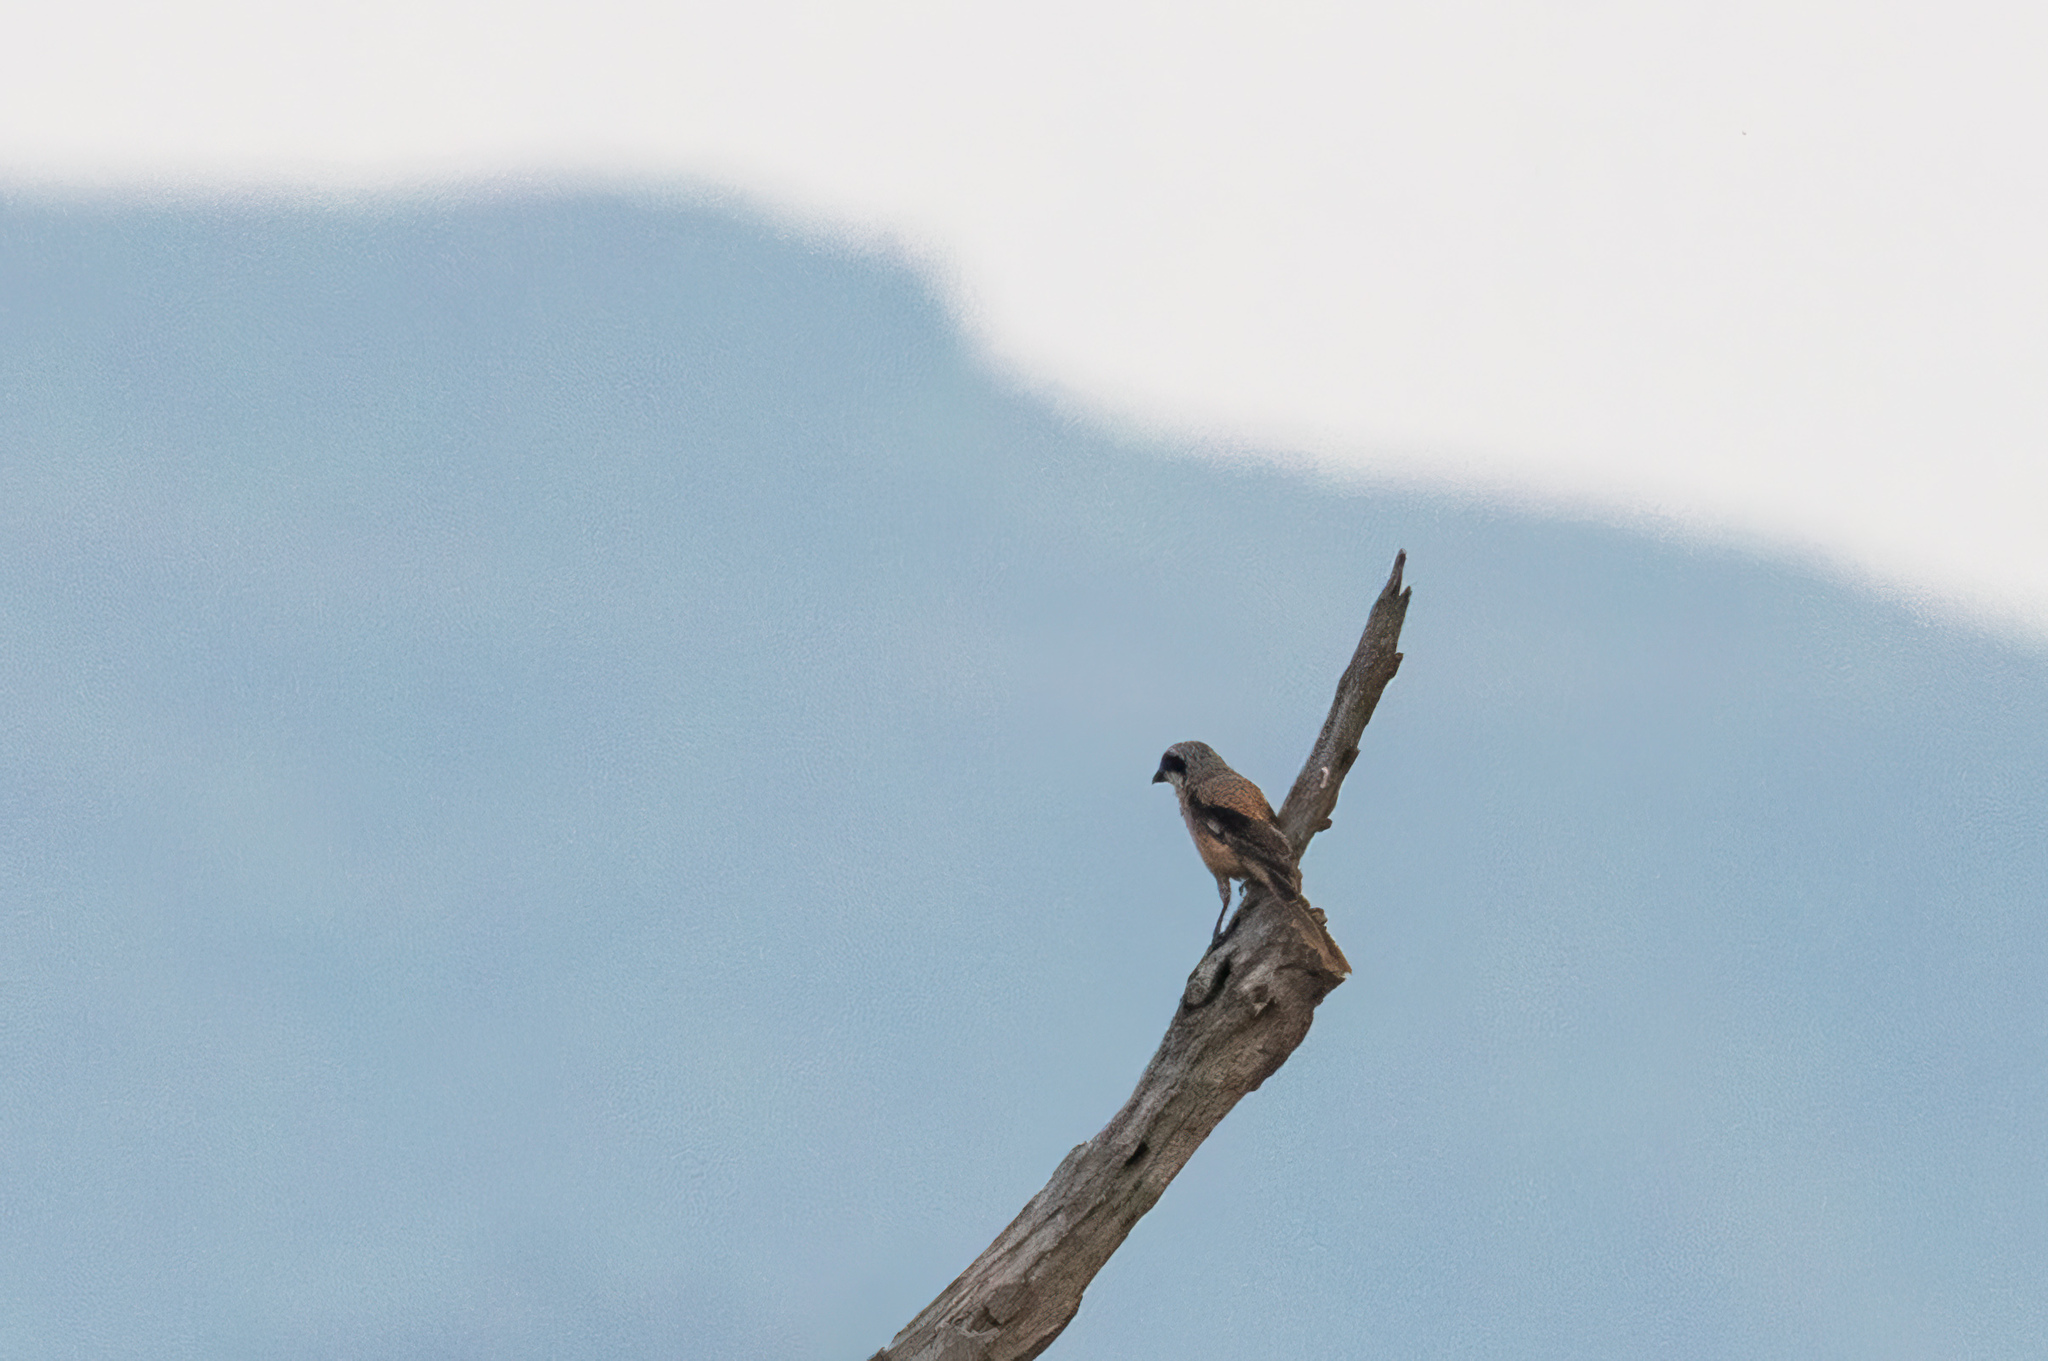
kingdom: Animalia
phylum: Chordata
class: Aves
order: Passeriformes
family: Laniidae
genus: Lanius
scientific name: Lanius schach
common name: Long-tailed shrike
